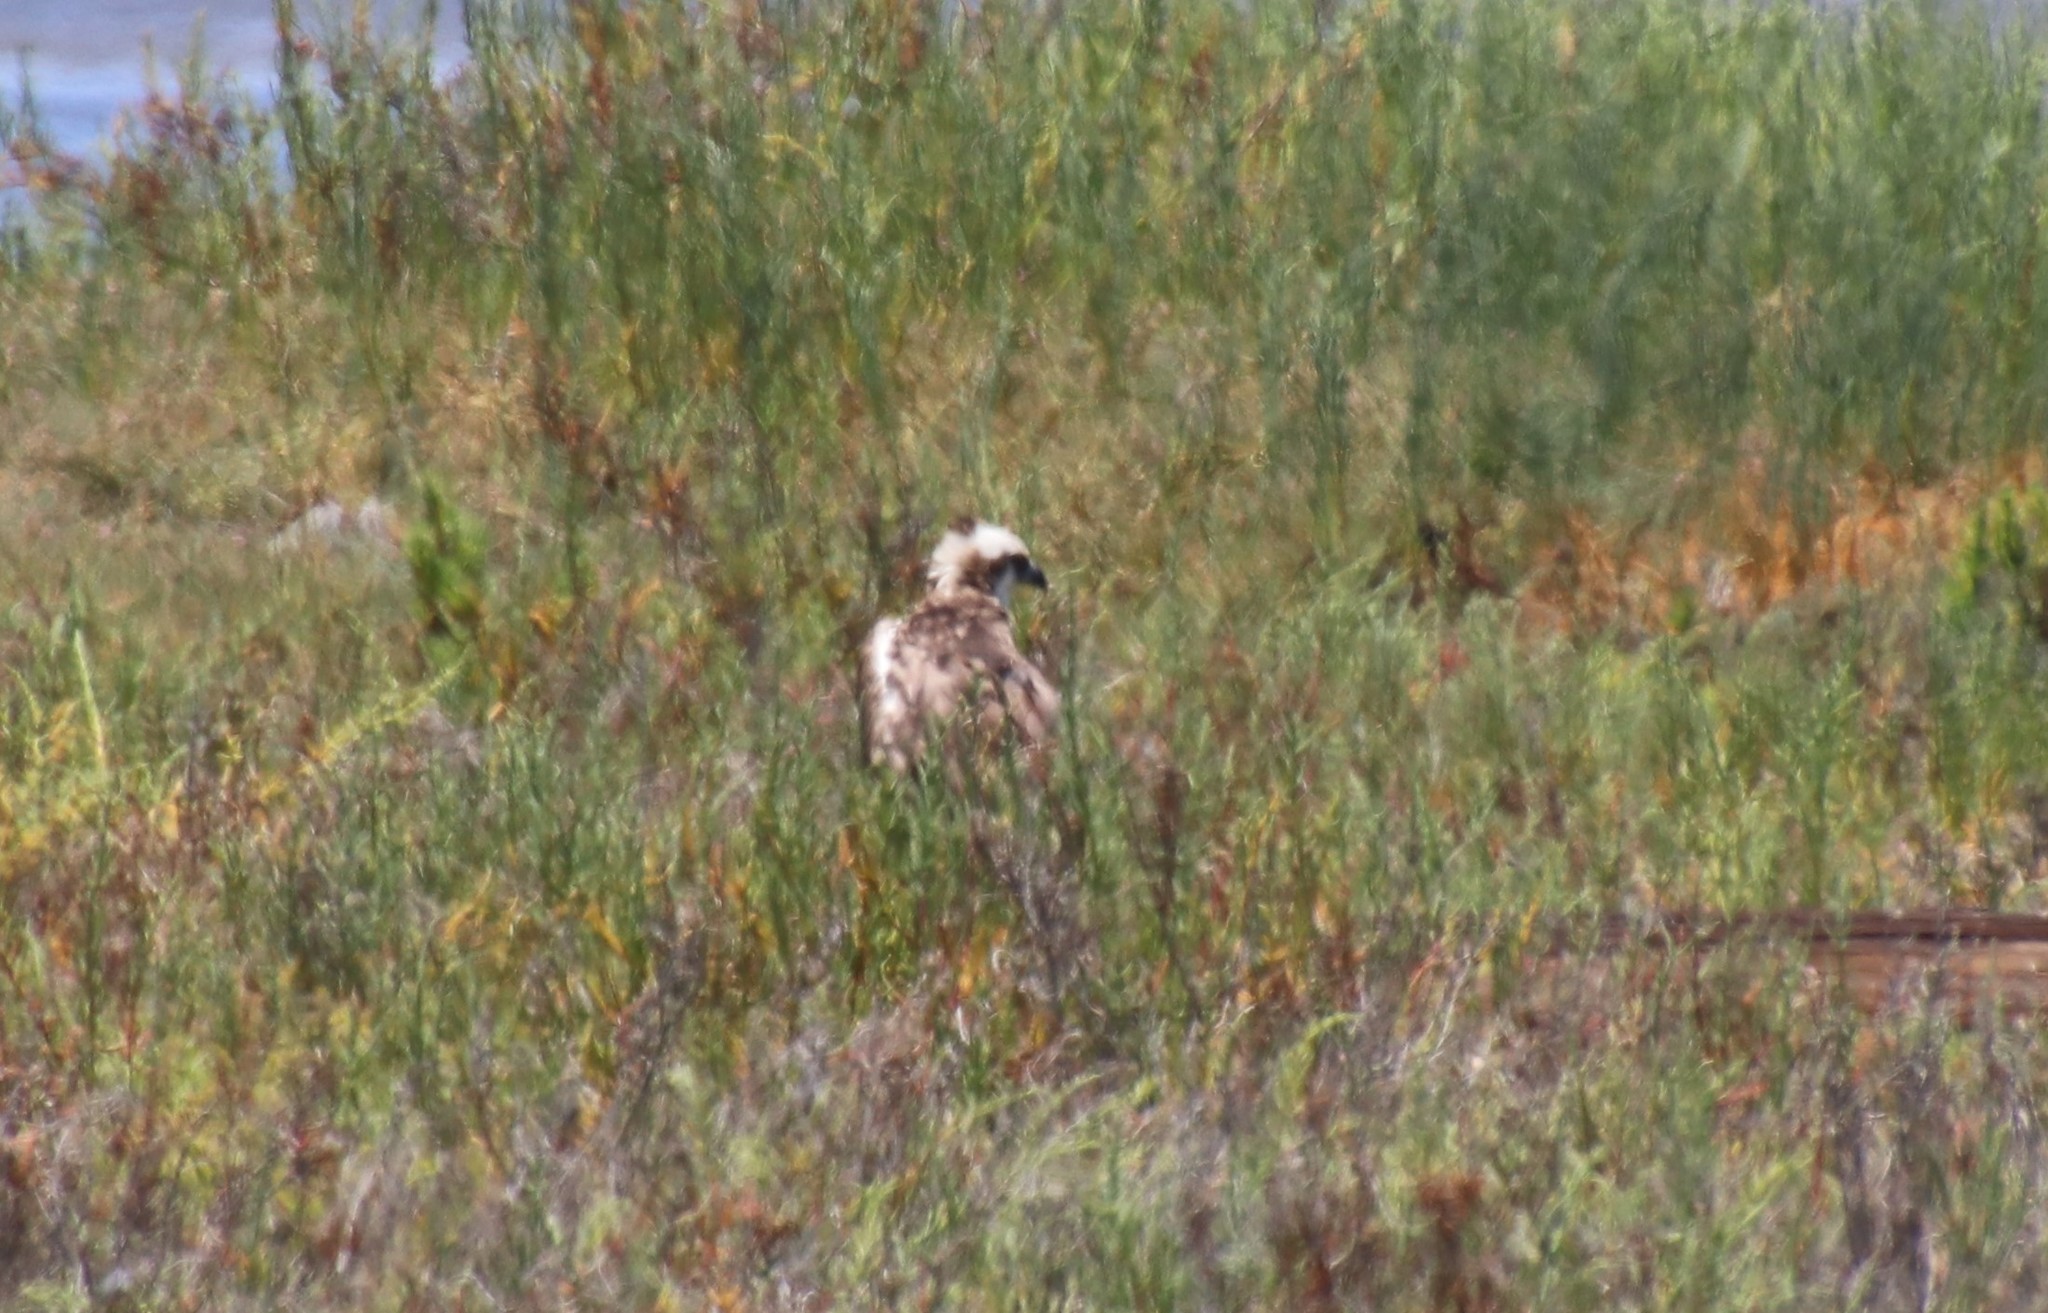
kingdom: Animalia
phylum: Chordata
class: Aves
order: Accipitriformes
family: Pandionidae
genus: Pandion
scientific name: Pandion haliaetus
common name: Osprey
